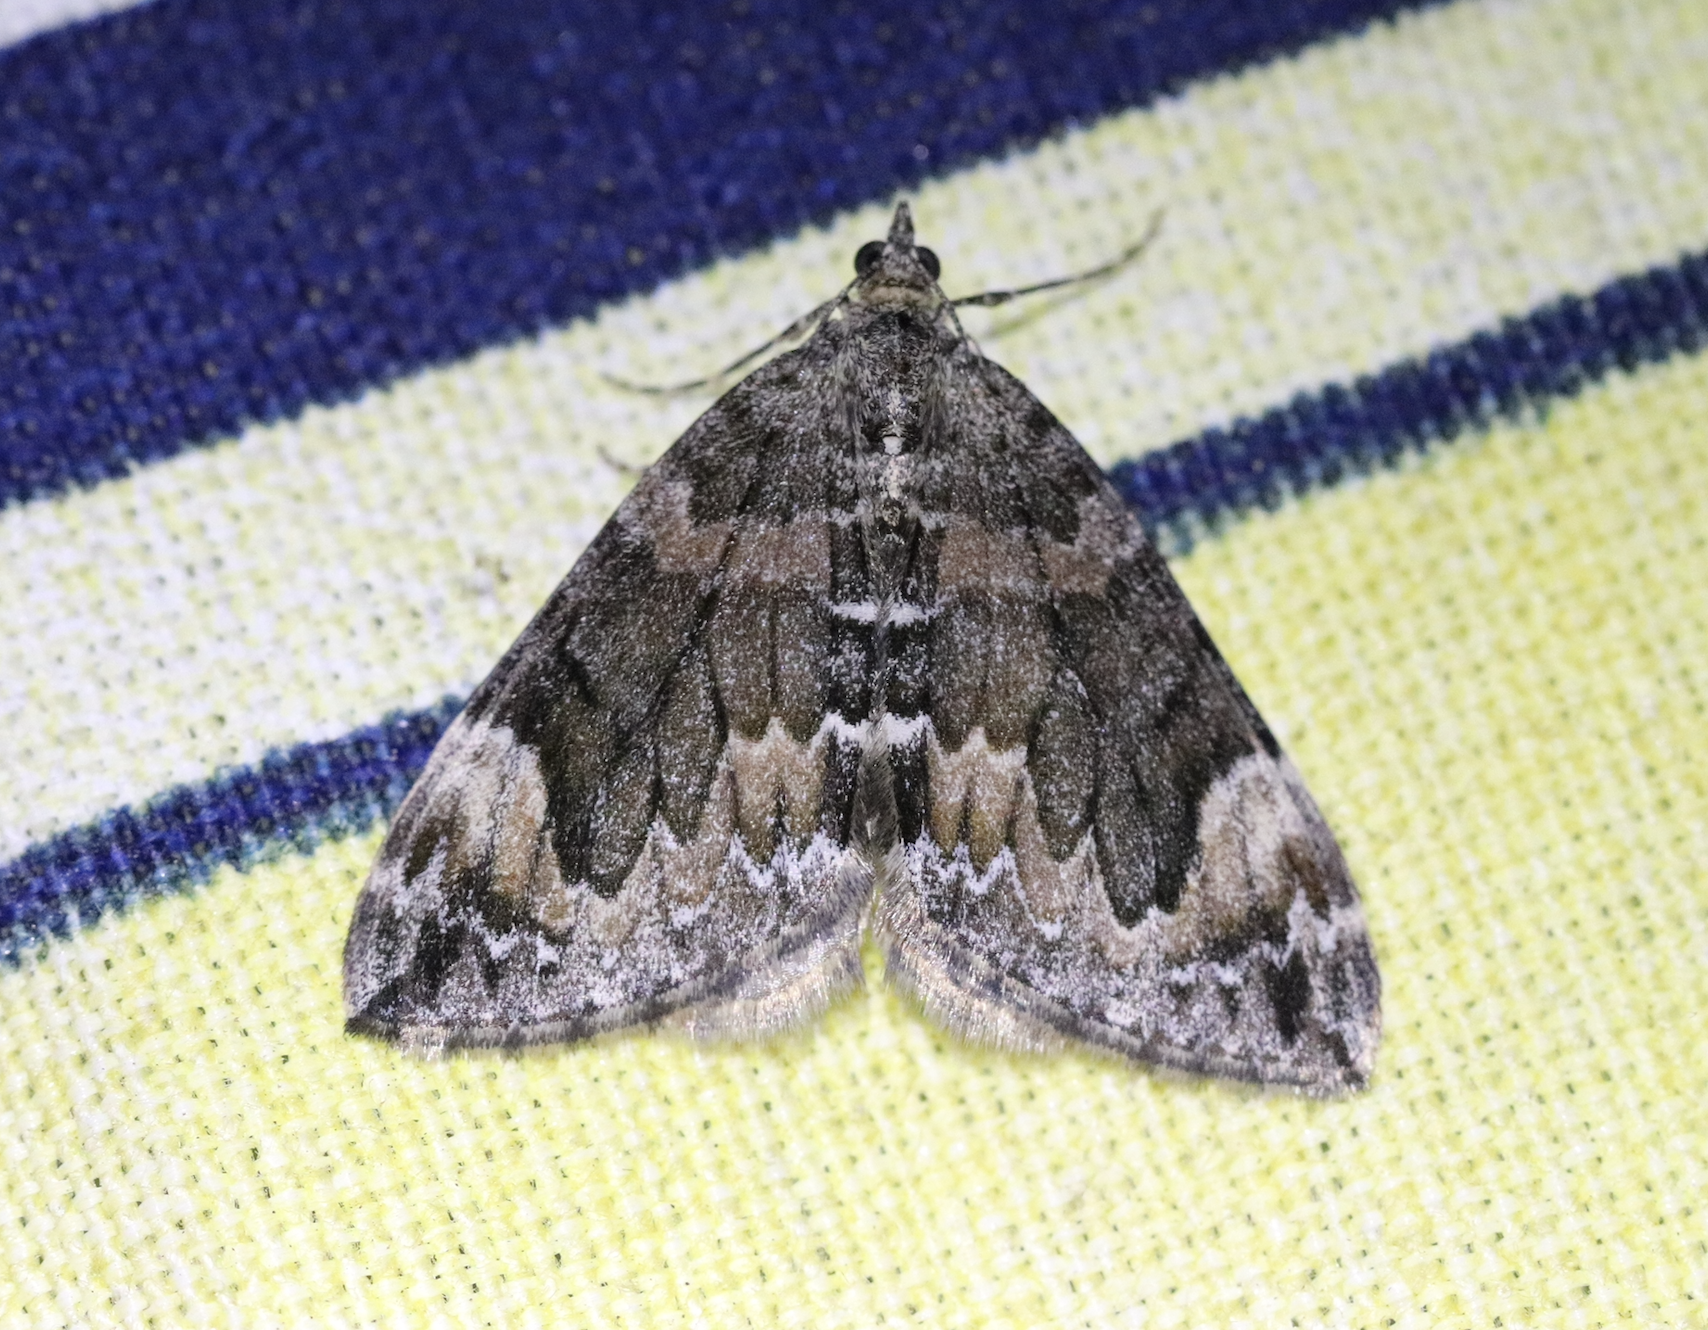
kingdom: Animalia
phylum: Arthropoda
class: Insecta
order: Lepidoptera
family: Geometridae
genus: Dysstroma
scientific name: Dysstroma citrata
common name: Dark marbled carpet
